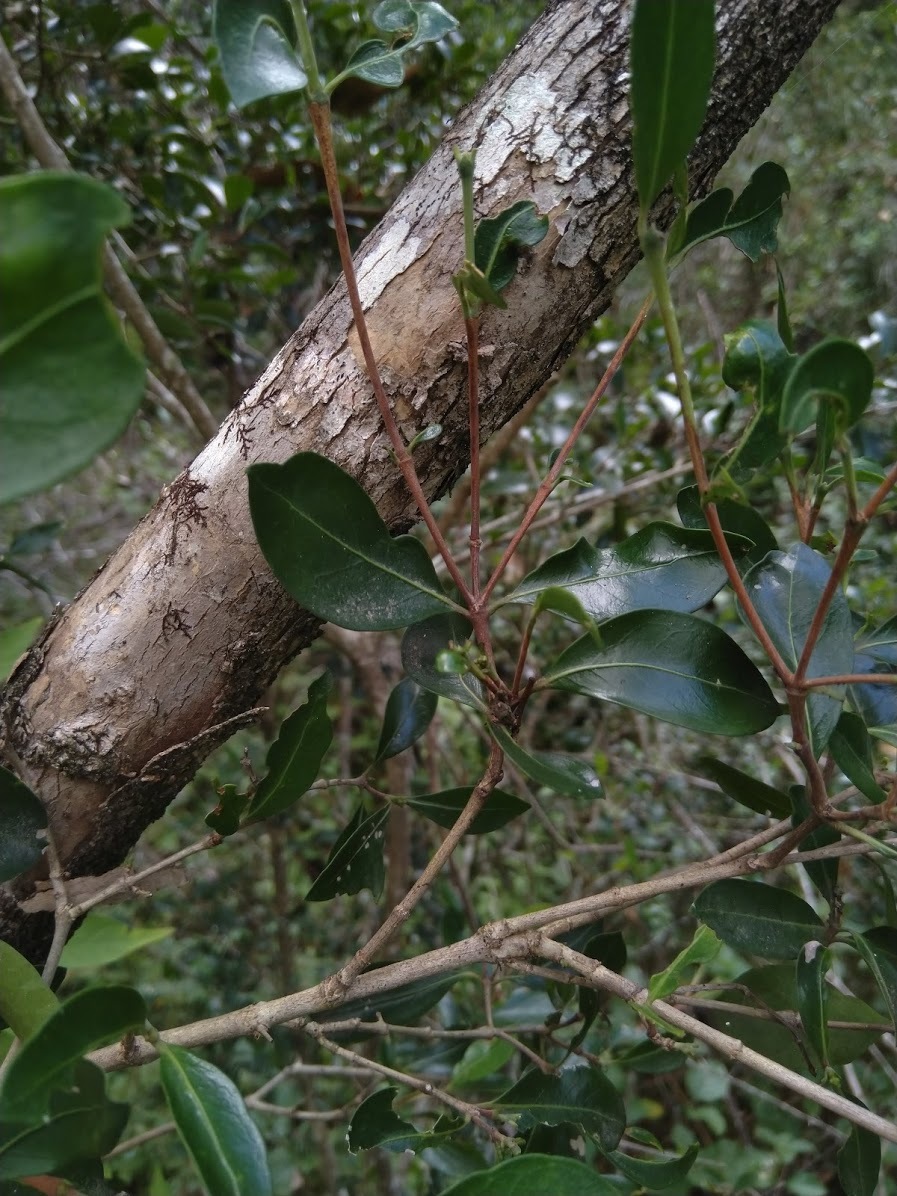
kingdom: Plantae
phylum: Tracheophyta
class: Magnoliopsida
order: Gentianales
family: Rubiaceae
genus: Psydrax
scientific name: Psydrax odoratus
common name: Alahe'e
